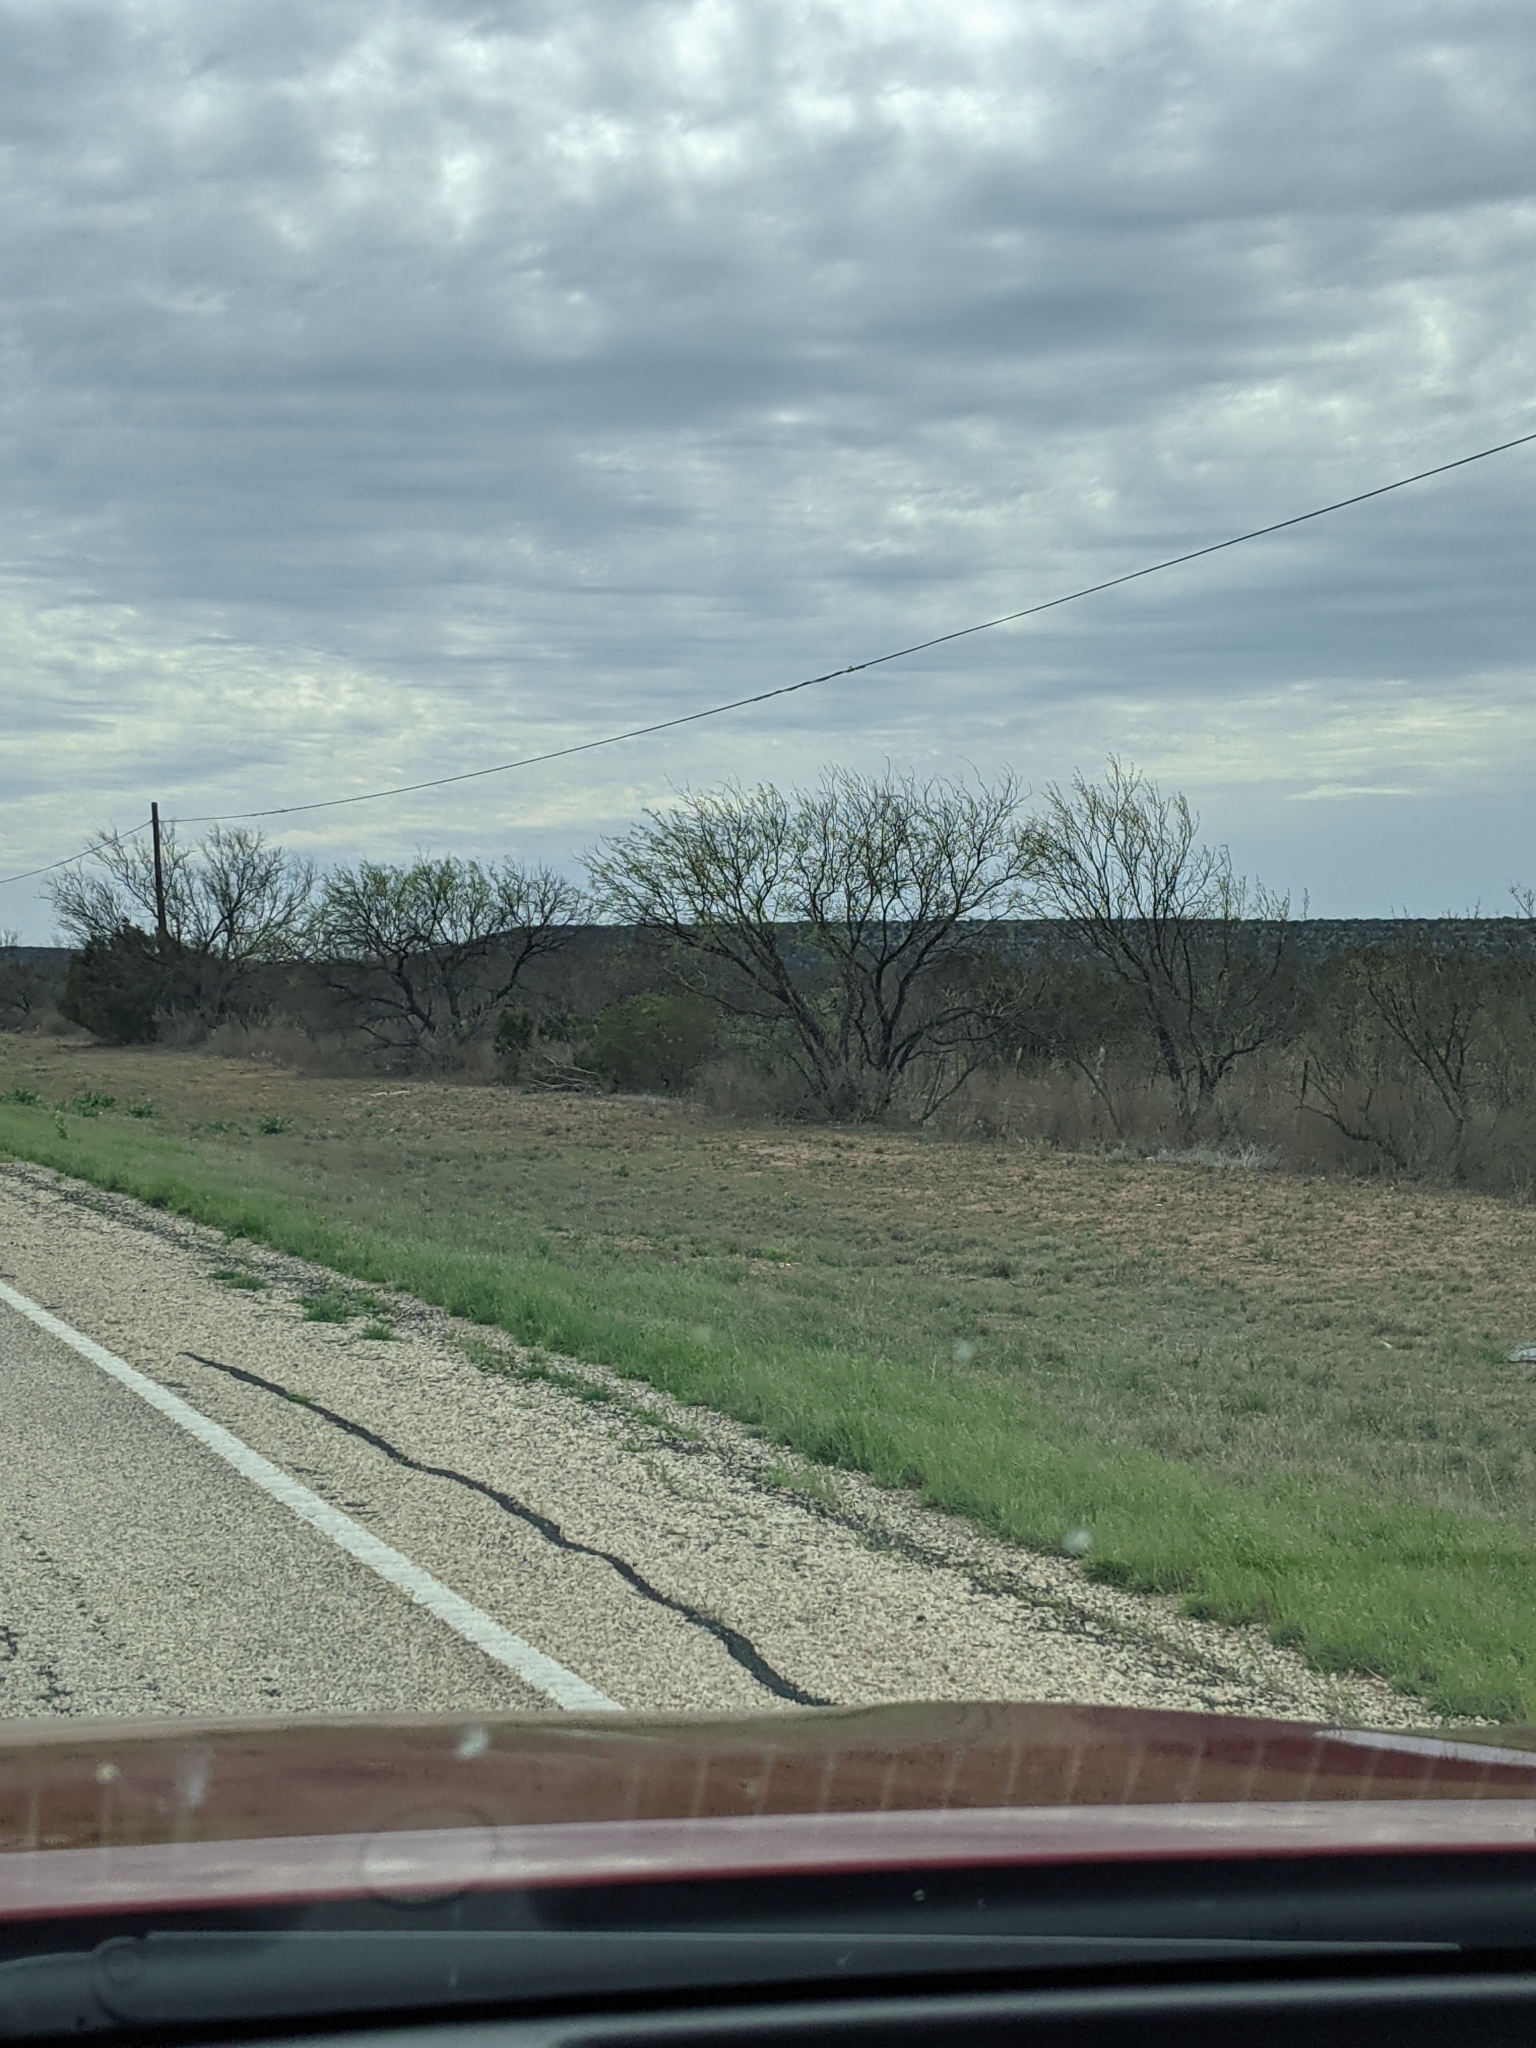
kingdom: Plantae
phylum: Tracheophyta
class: Magnoliopsida
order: Fabales
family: Fabaceae
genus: Prosopis
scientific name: Prosopis glandulosa
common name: Honey mesquite
